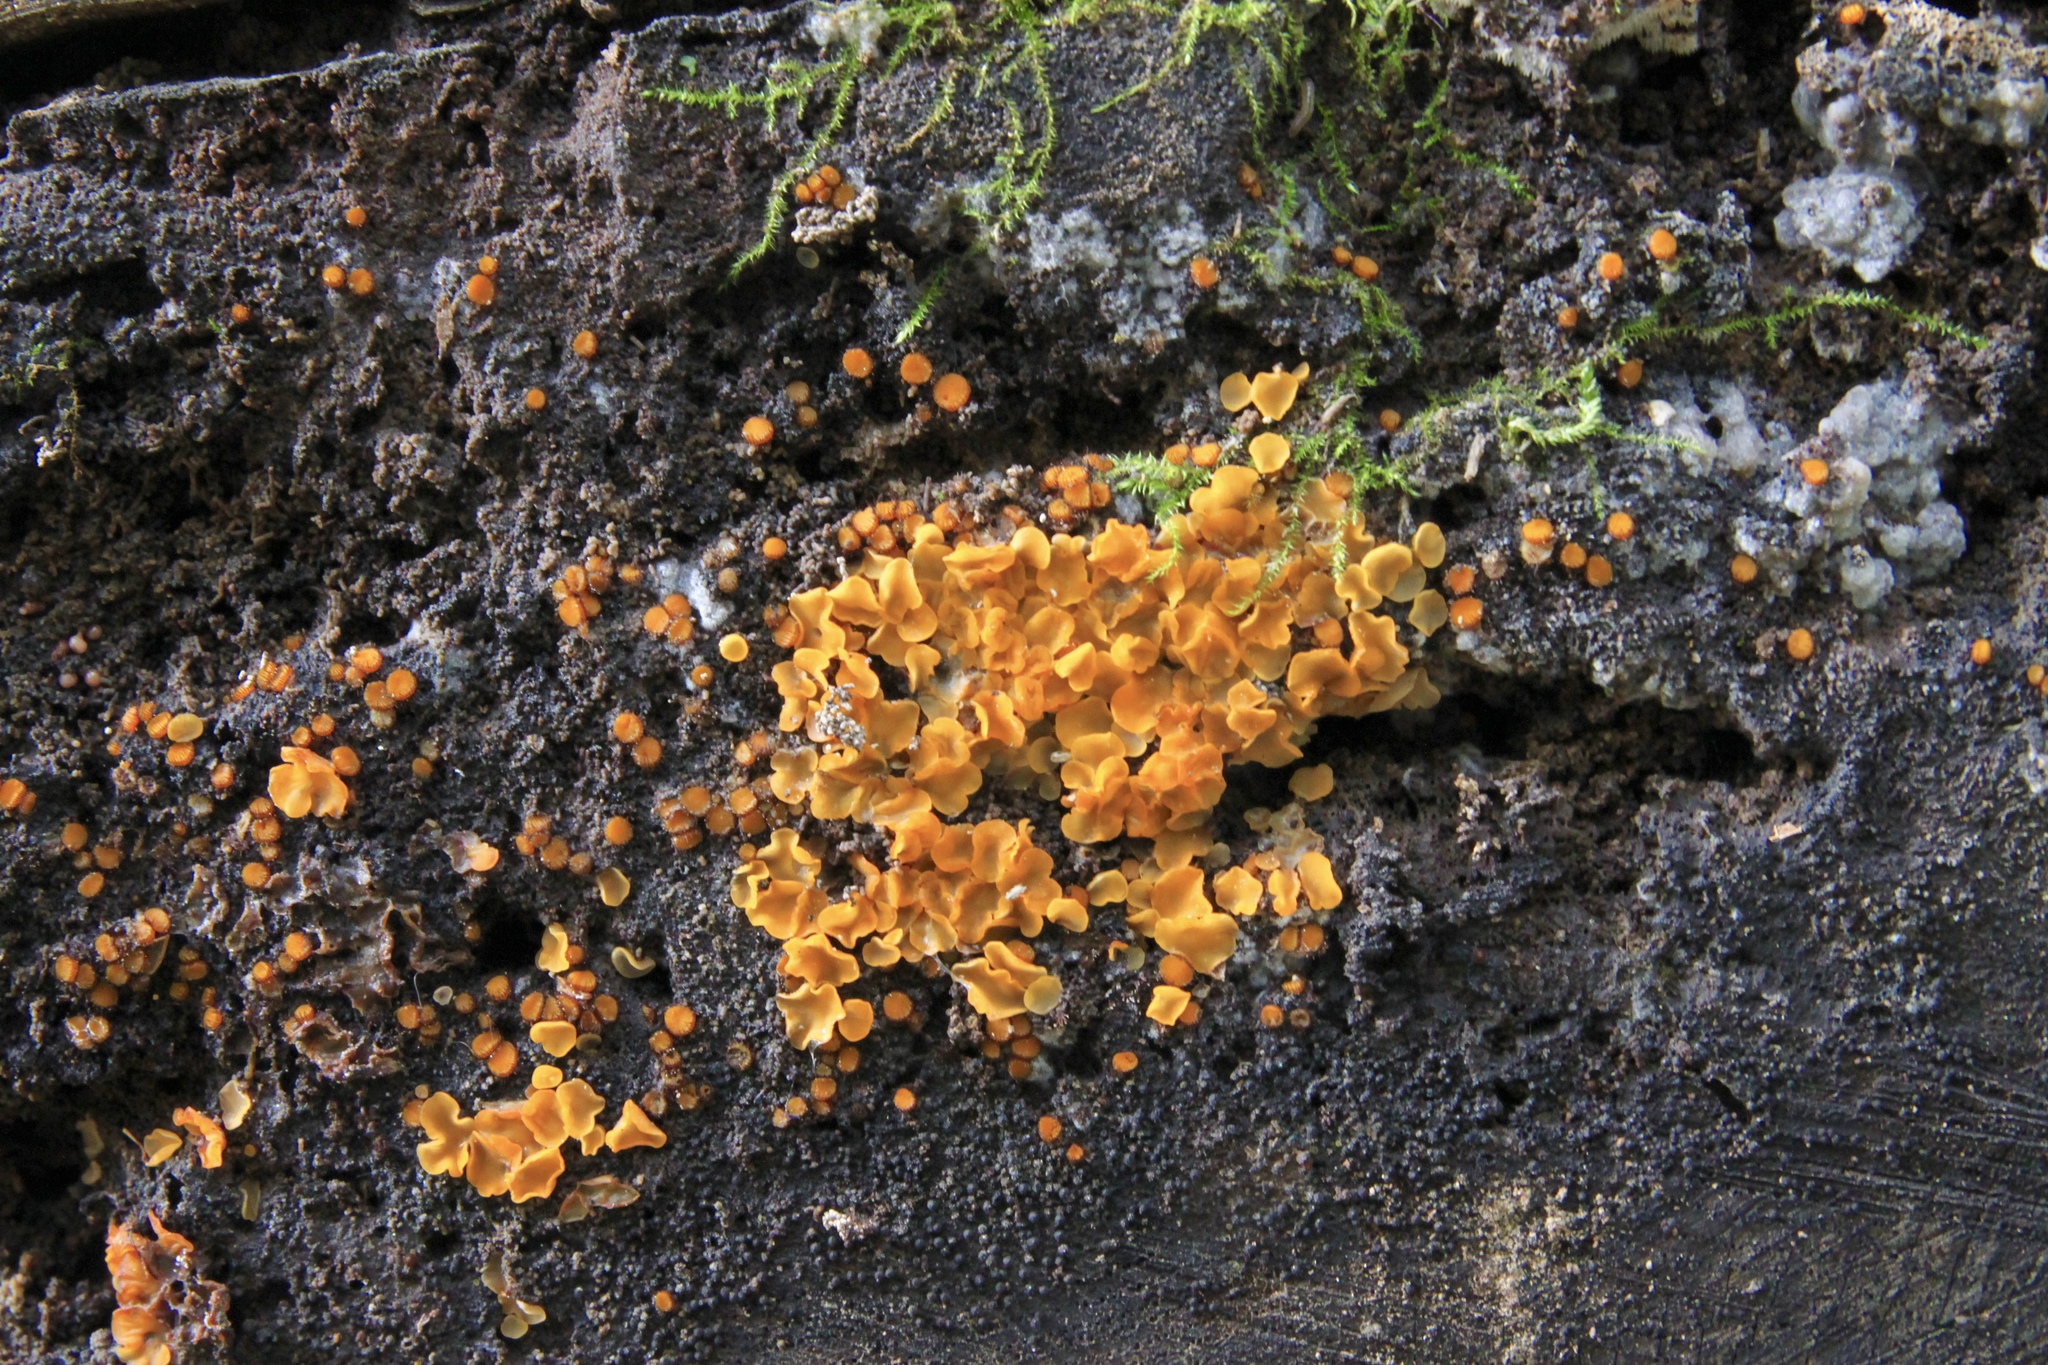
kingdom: Fungi
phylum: Ascomycota
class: Leotiomycetes
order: Helotiales
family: Pezizellaceae
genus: Calycina
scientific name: Calycina citrina
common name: Yellow fairy cups
